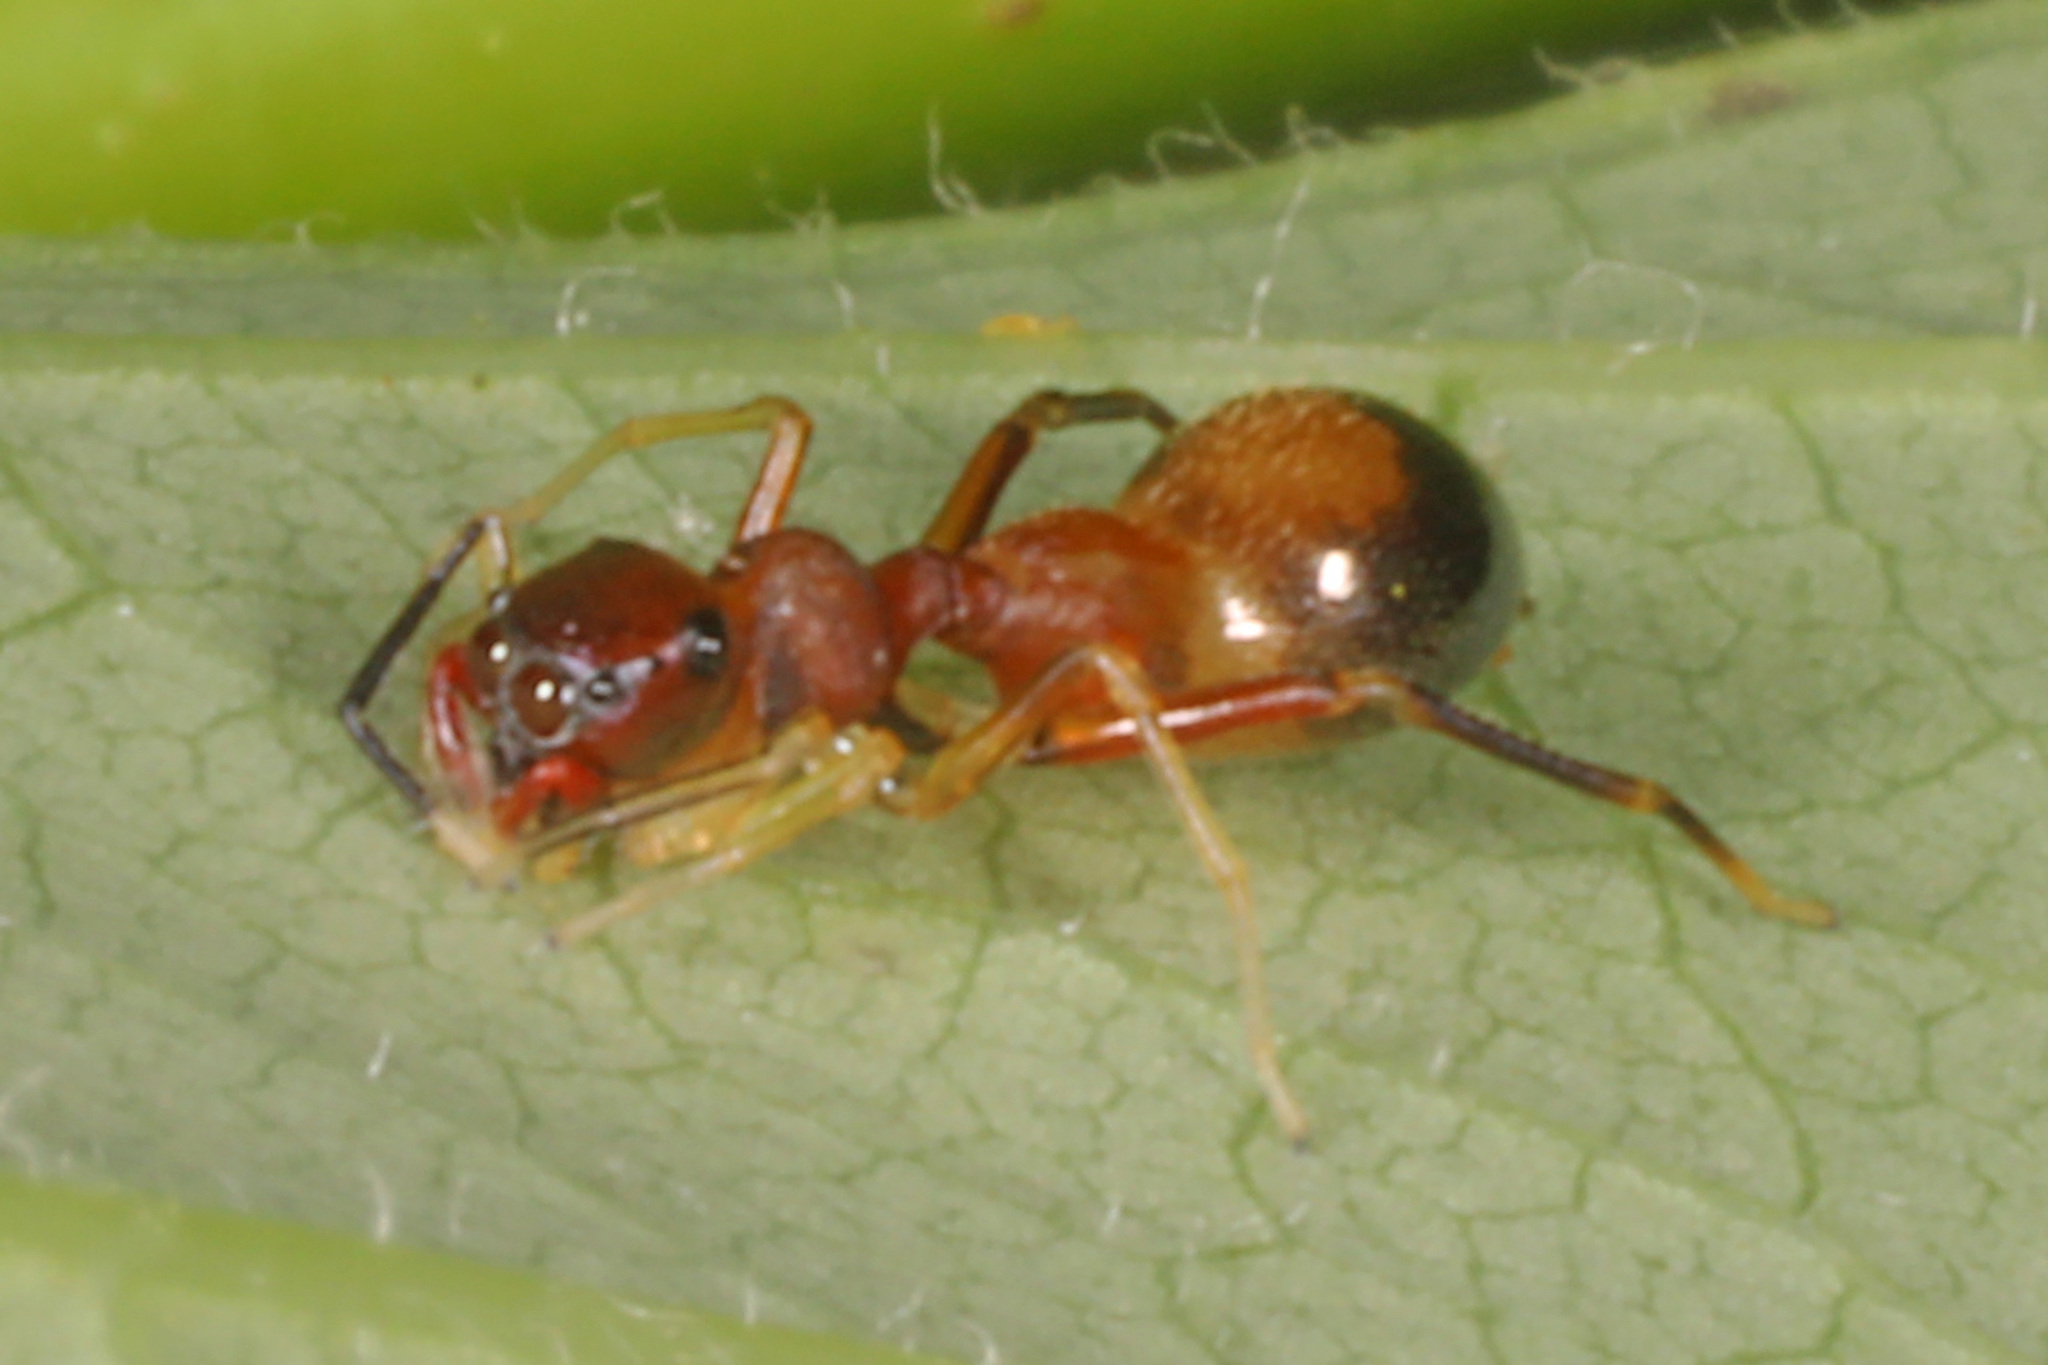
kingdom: Animalia
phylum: Arthropoda
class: Arachnida
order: Araneae
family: Salticidae
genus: Synemosyna
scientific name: Synemosyna formica
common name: Slender ant-mimic jumping spider
